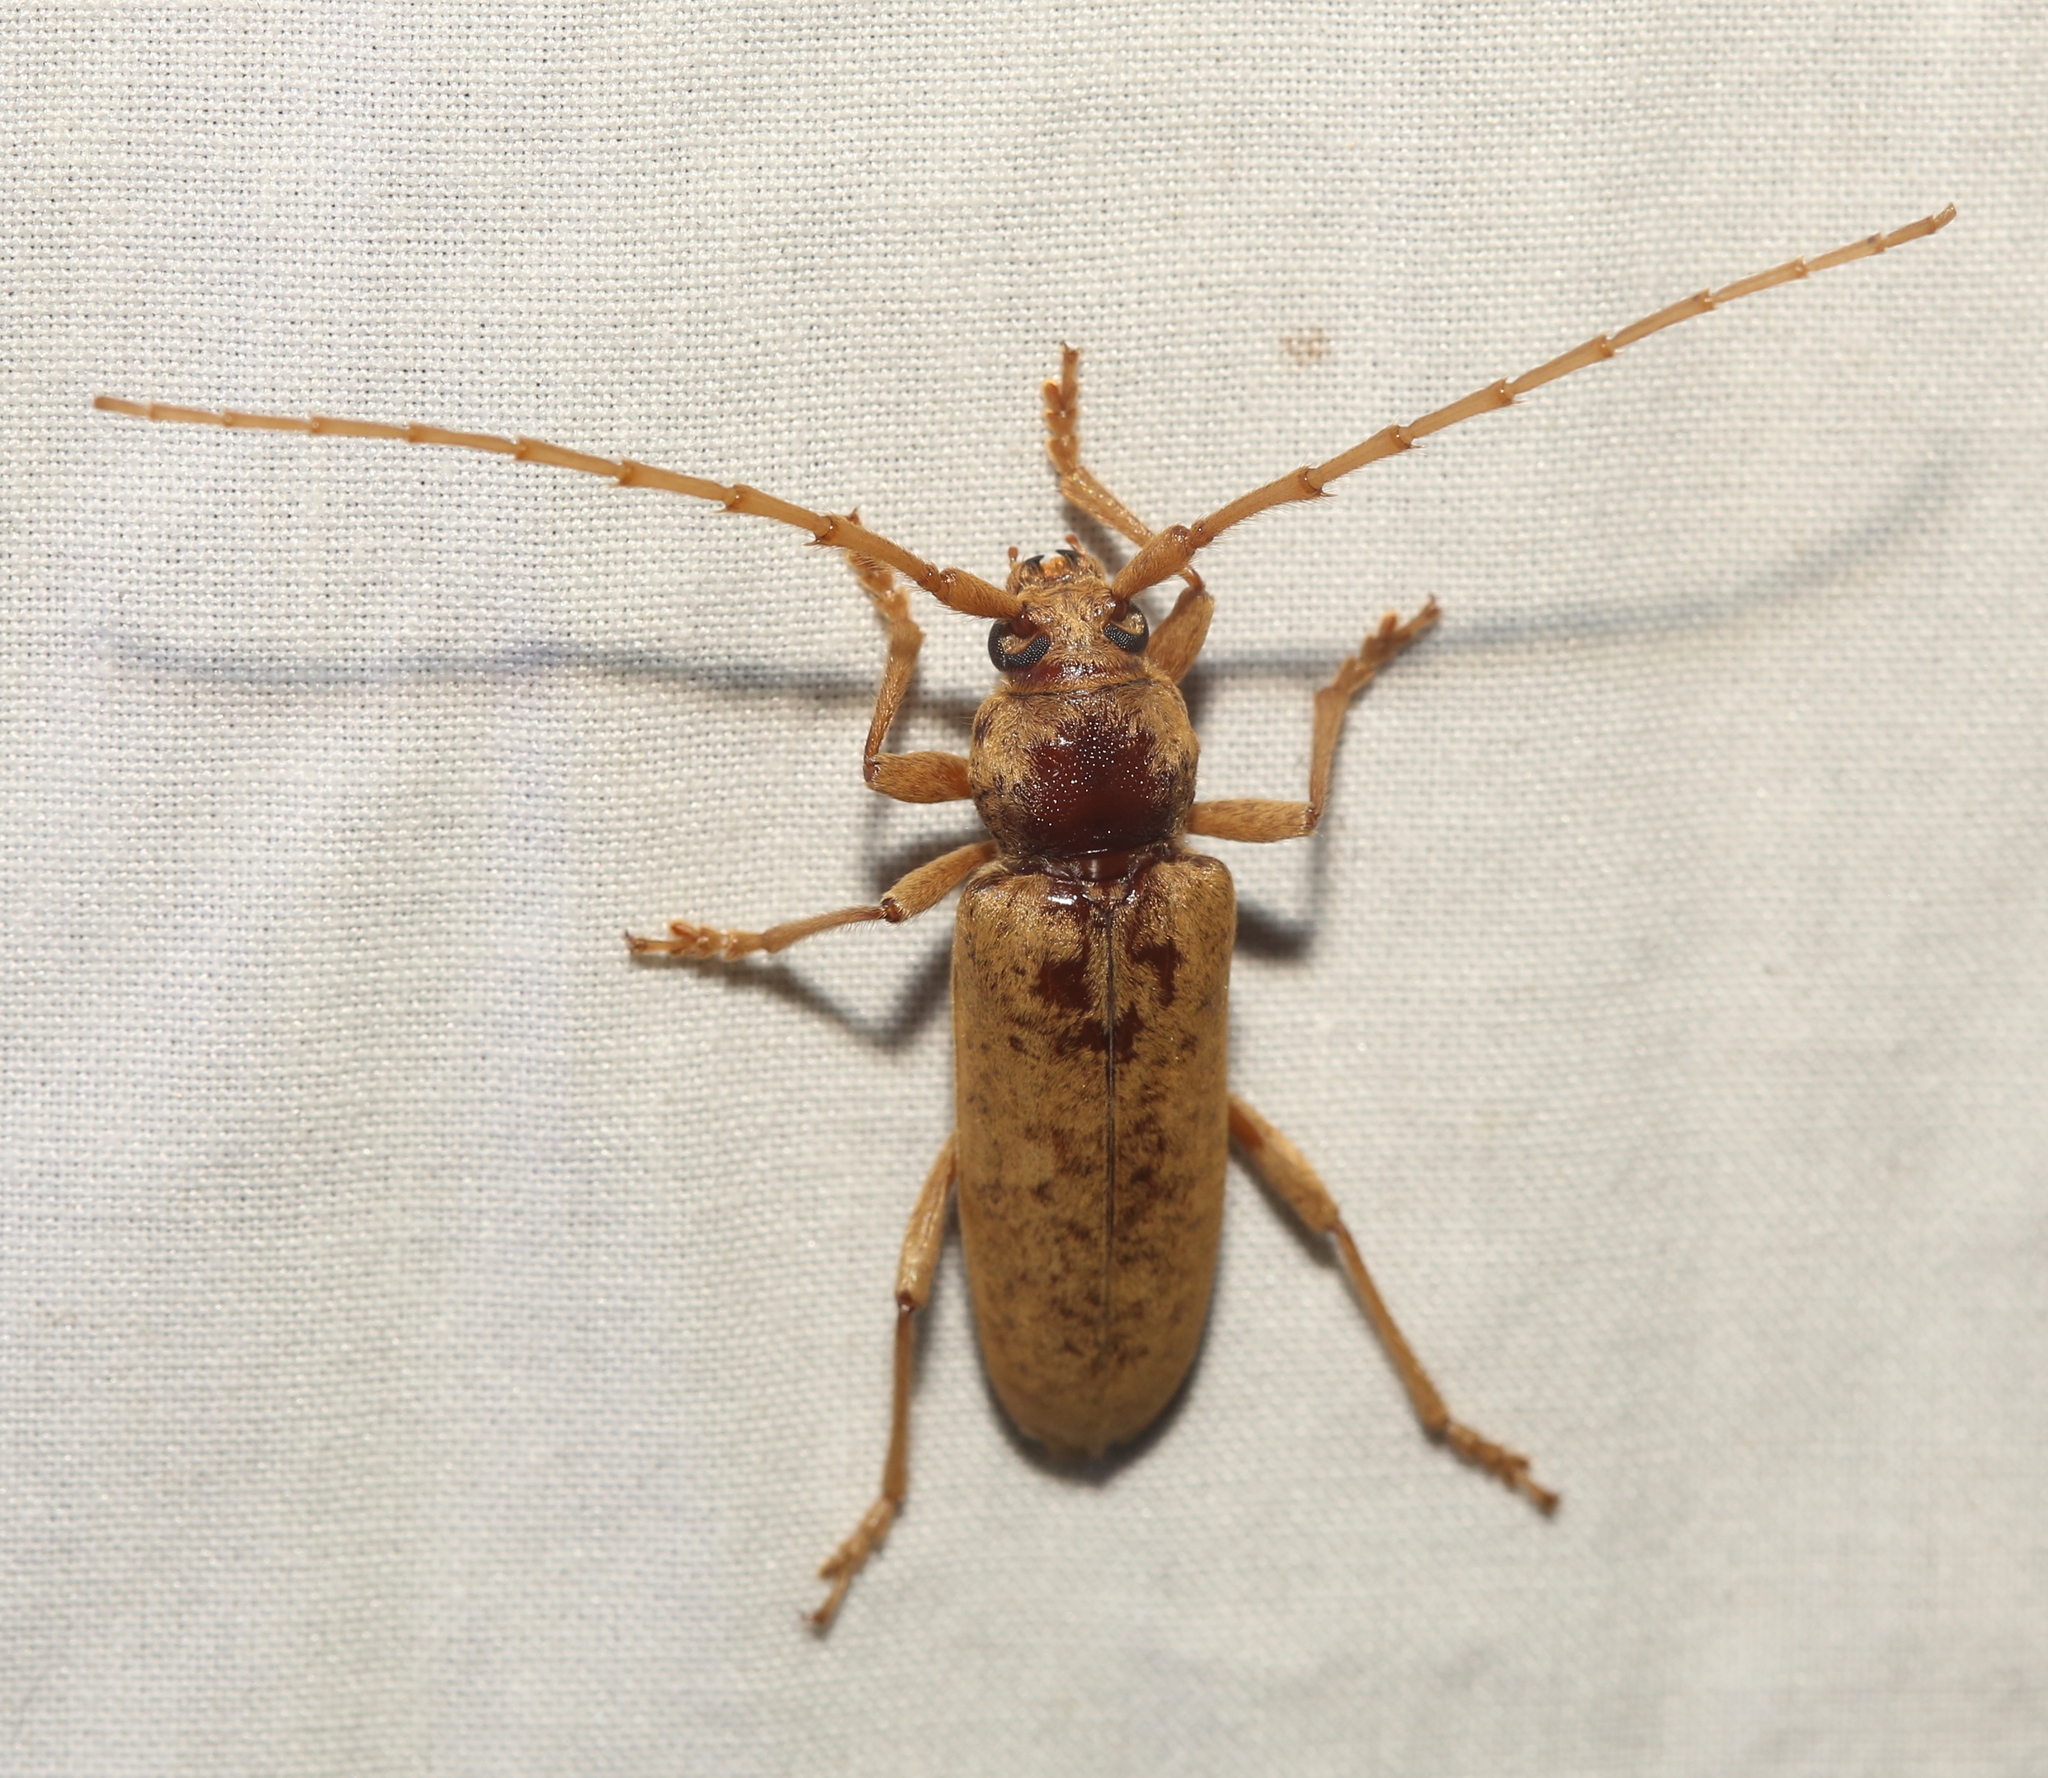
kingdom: Animalia
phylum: Arthropoda
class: Insecta
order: Coleoptera
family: Cerambycidae
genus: Enaphalodes
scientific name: Enaphalodes rufulus
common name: Red oak borer
